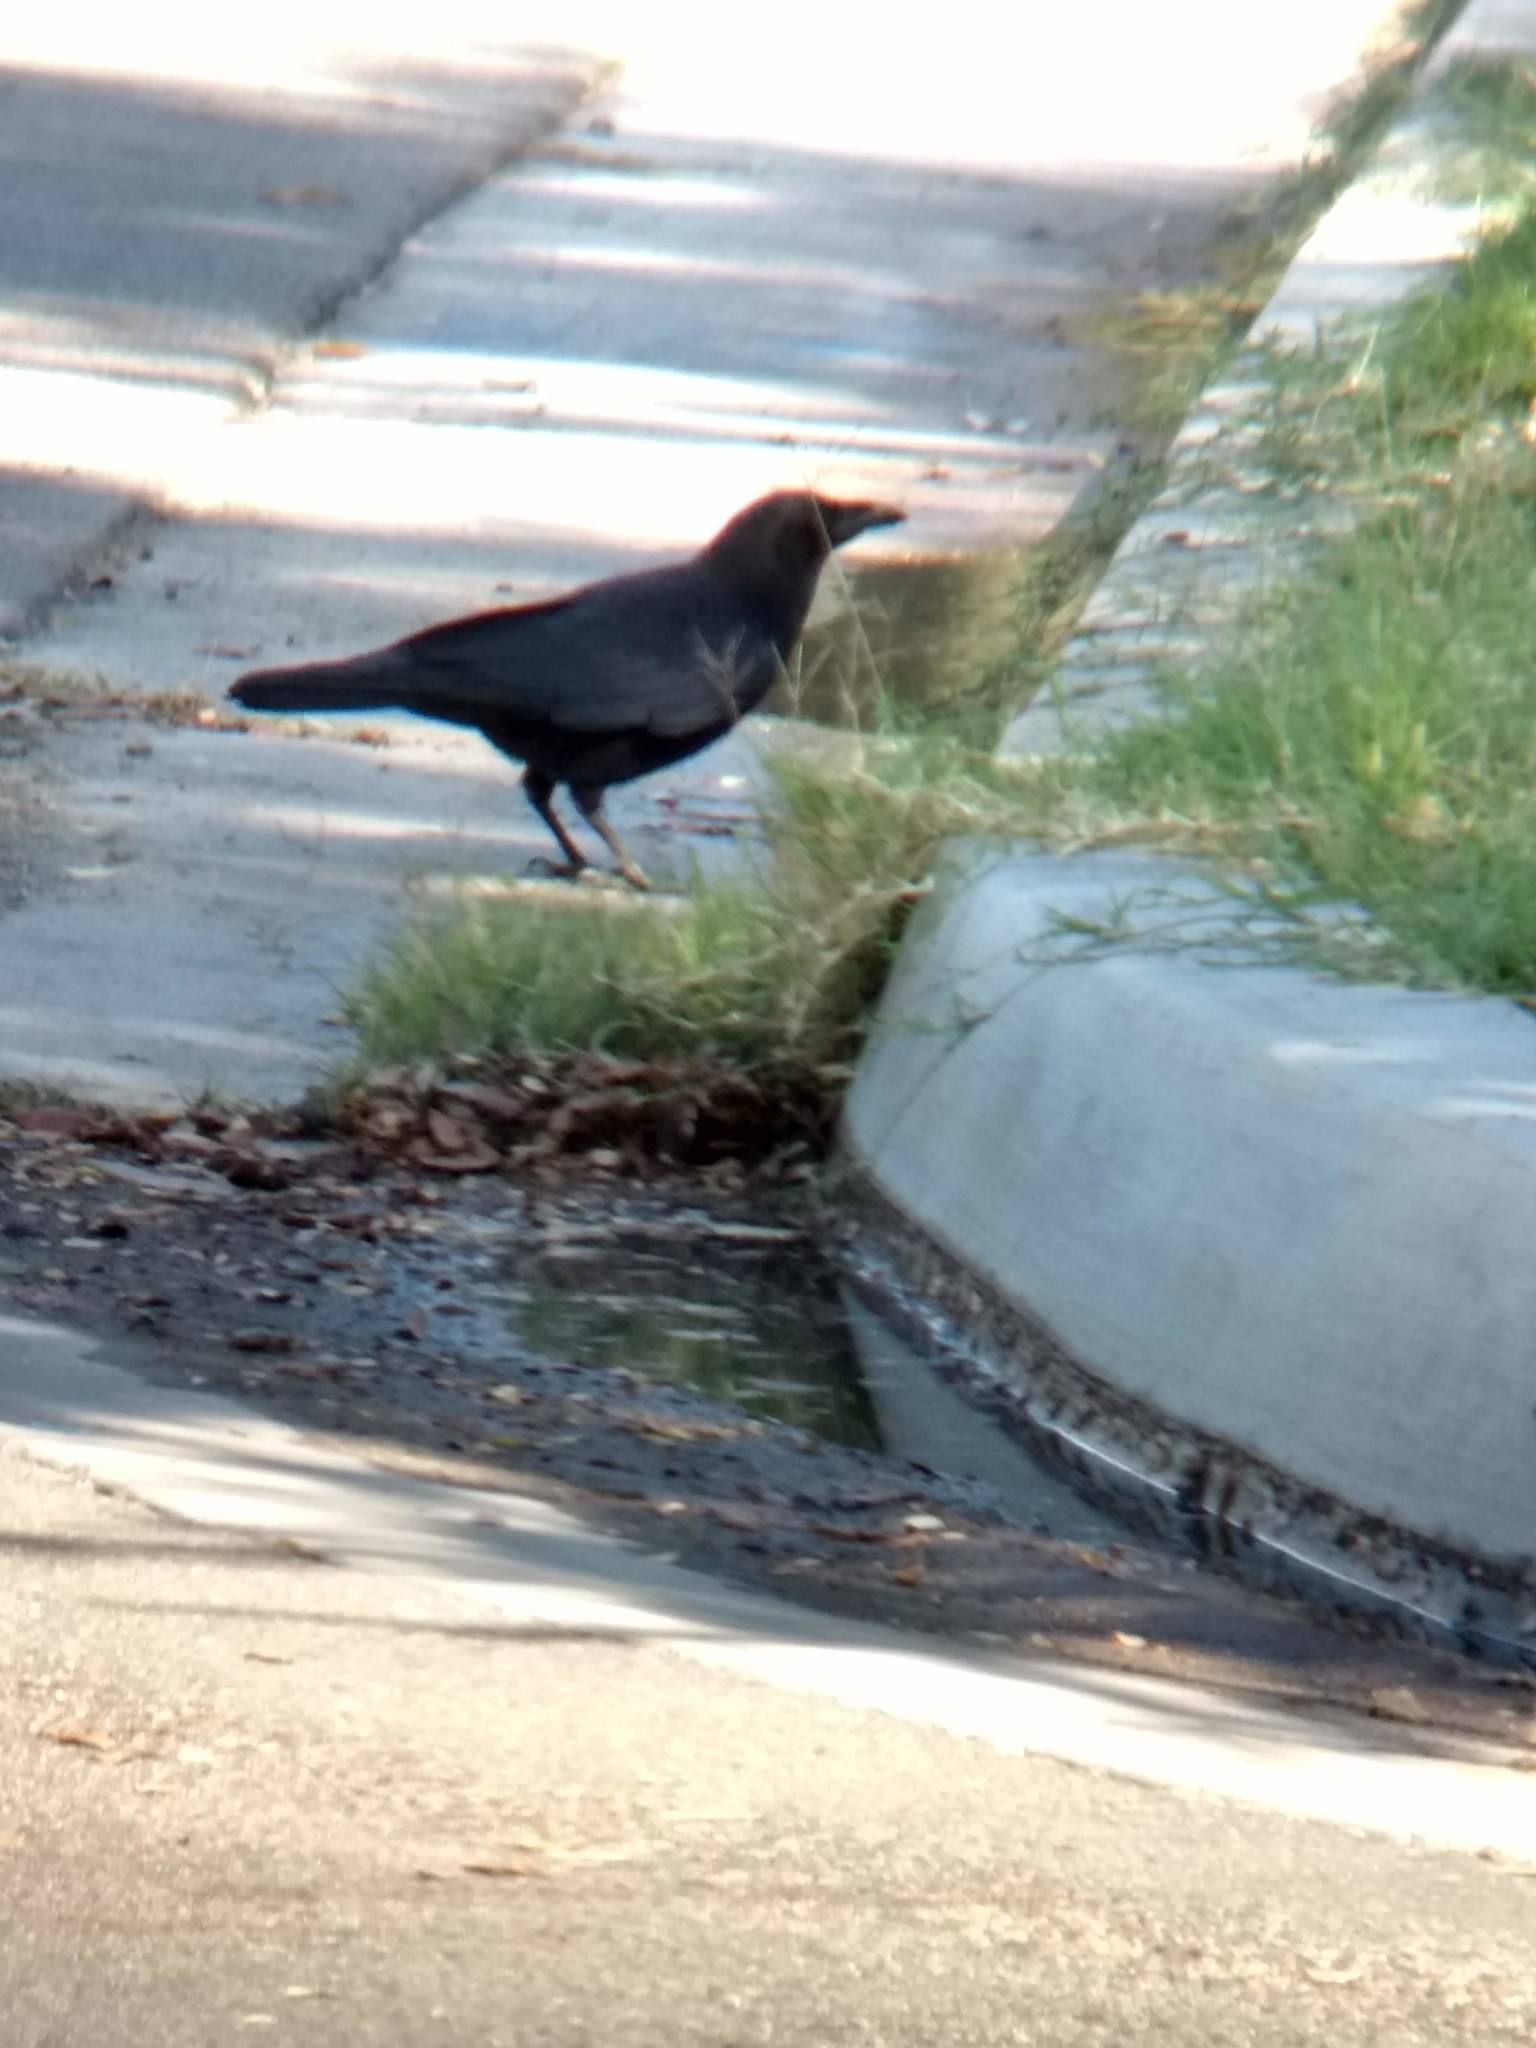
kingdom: Animalia
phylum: Chordata
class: Aves
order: Passeriformes
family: Corvidae
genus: Corvus
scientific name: Corvus brachyrhynchos
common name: American crow
